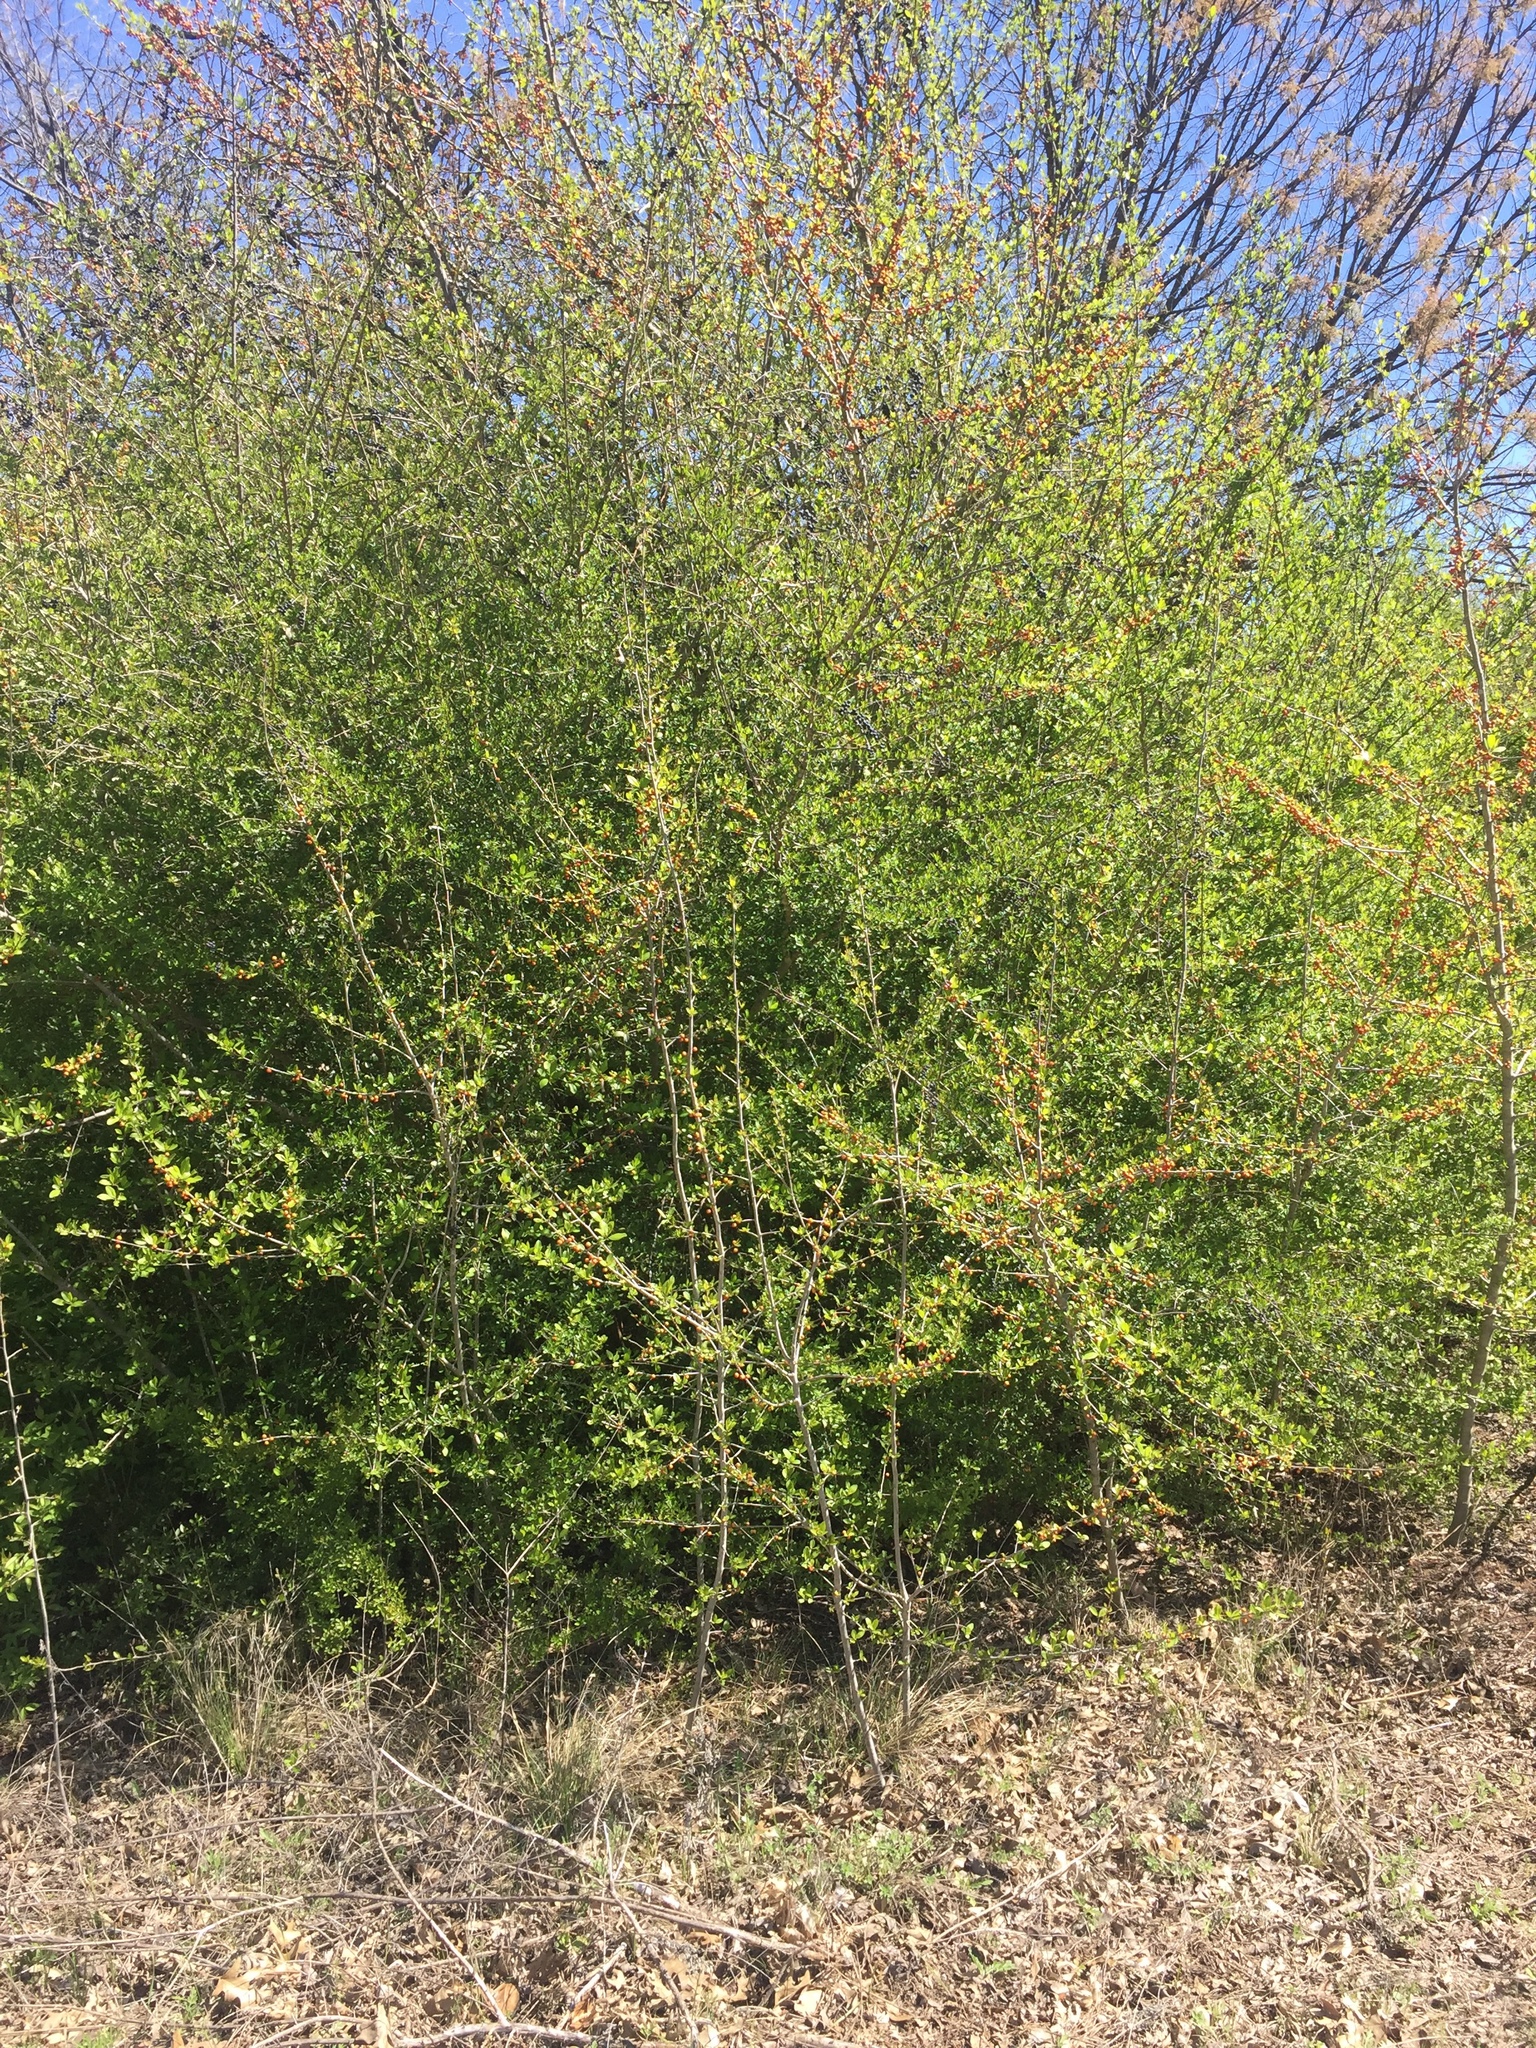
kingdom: Plantae
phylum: Tracheophyta
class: Magnoliopsida
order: Aquifoliales
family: Aquifoliaceae
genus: Ilex
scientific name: Ilex decidua
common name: Possum-haw
